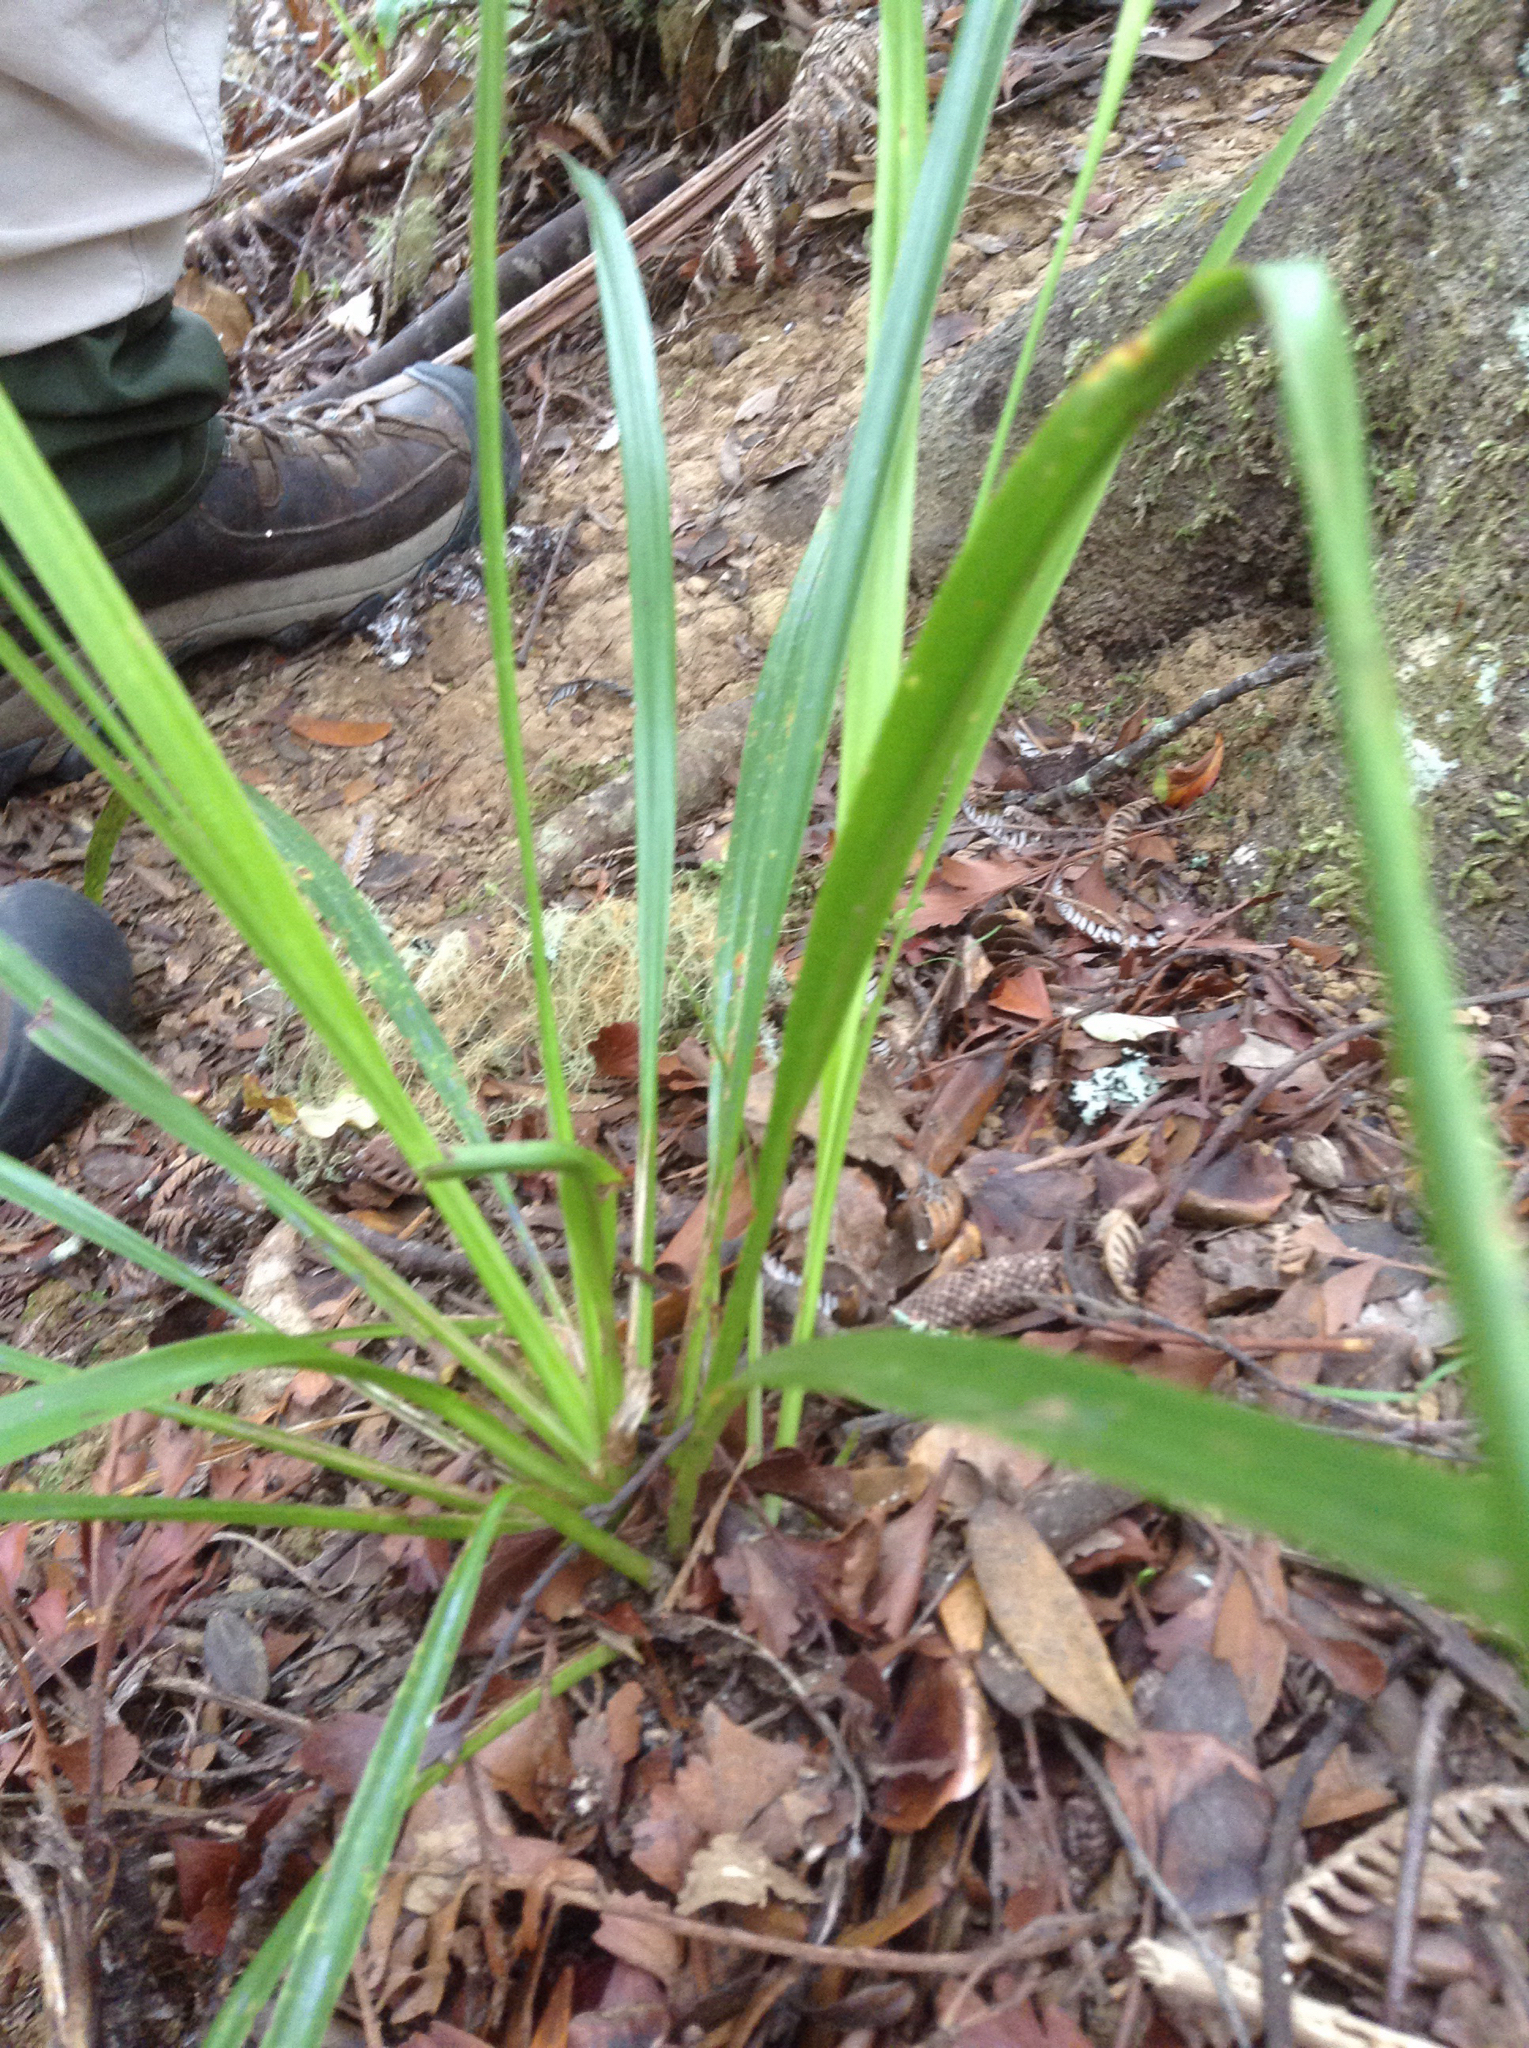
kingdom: Plantae
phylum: Tracheophyta
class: Liliopsida
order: Asparagales
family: Asparagaceae
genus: Cordyline
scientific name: Cordyline pumilio
